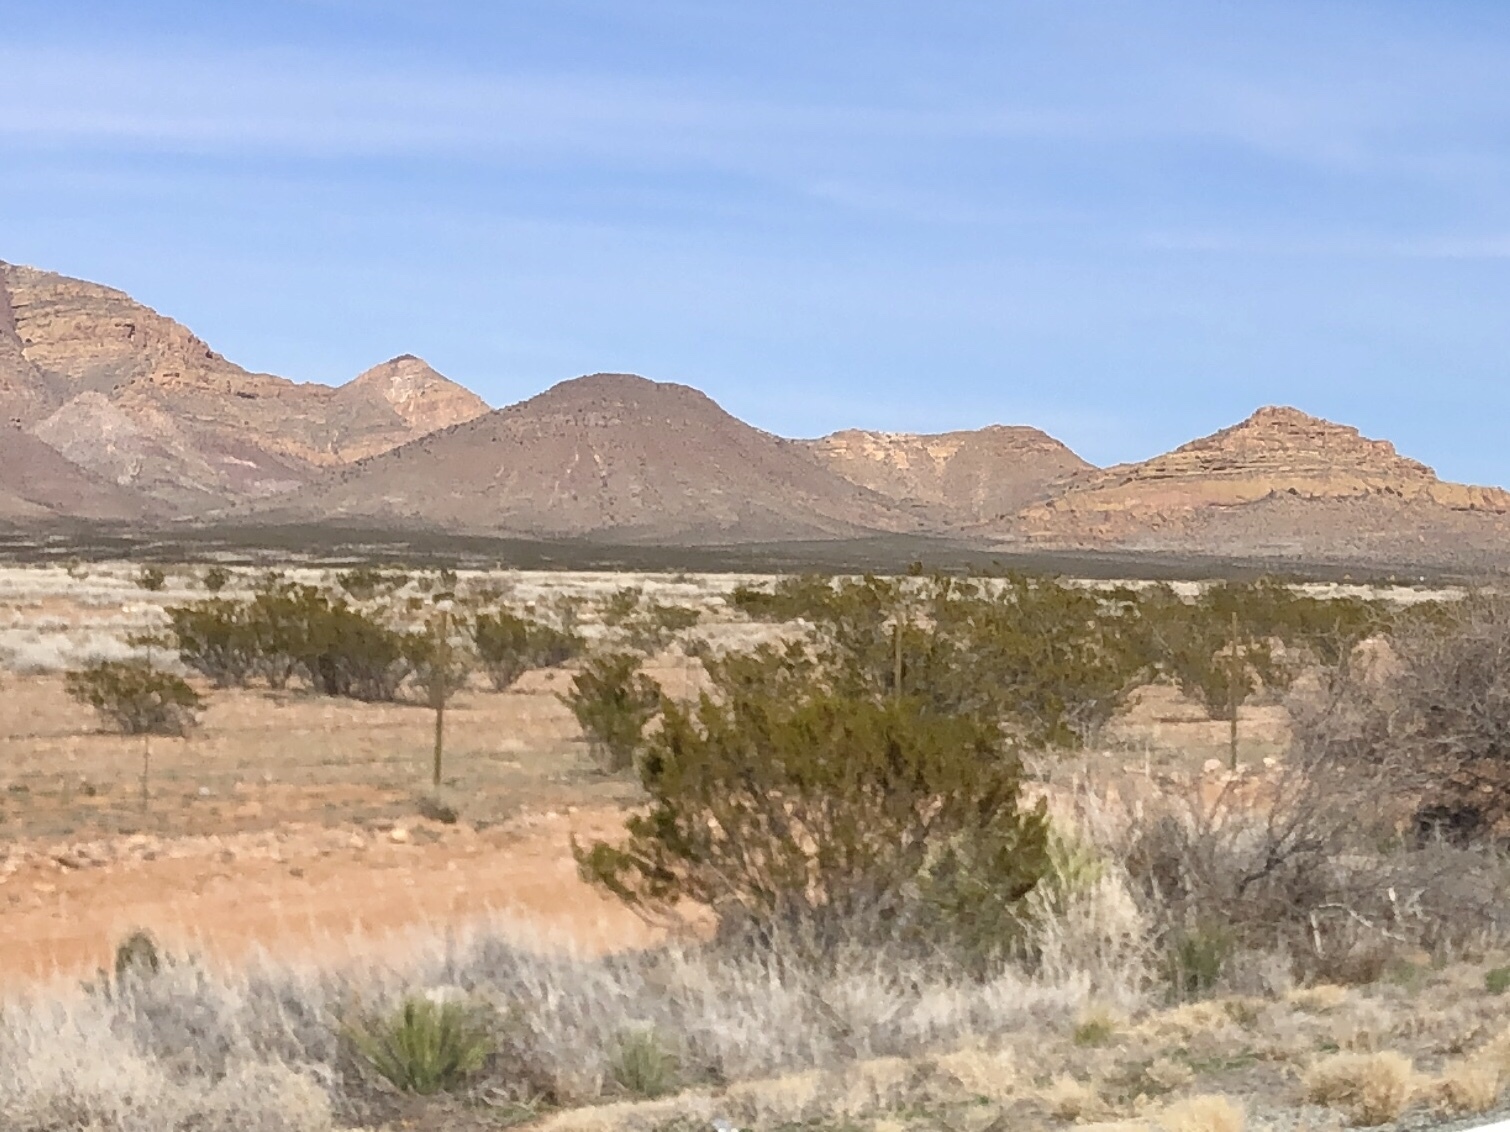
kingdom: Plantae
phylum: Tracheophyta
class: Magnoliopsida
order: Zygophyllales
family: Zygophyllaceae
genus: Larrea
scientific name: Larrea tridentata
